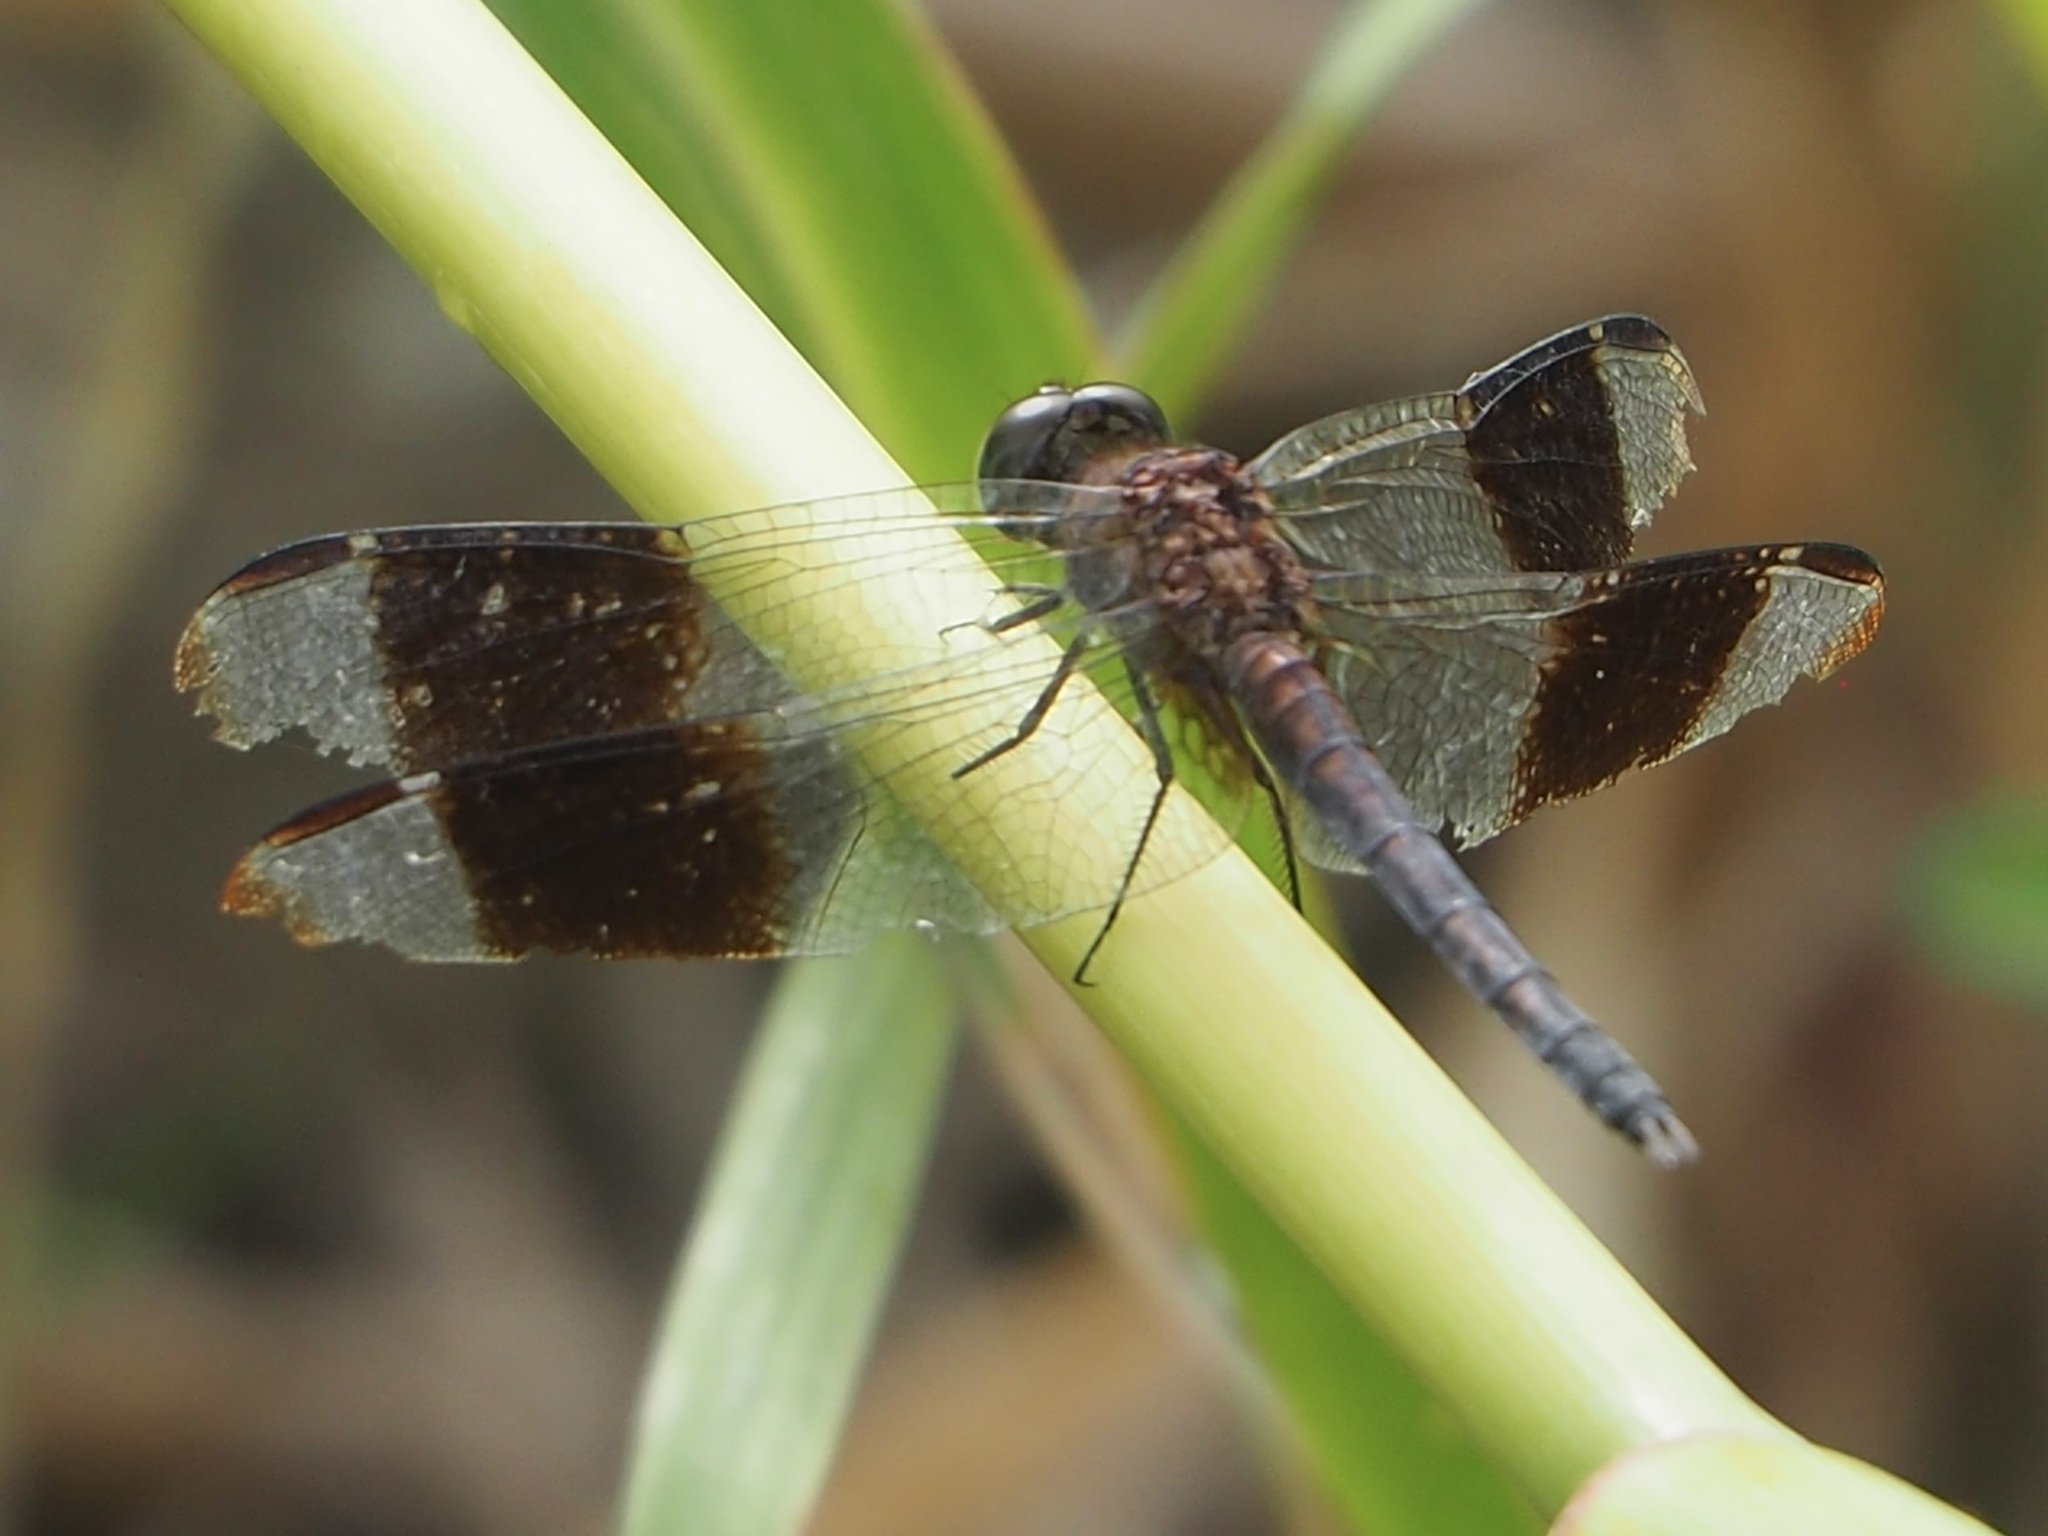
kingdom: Animalia
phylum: Arthropoda
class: Insecta
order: Odonata
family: Libellulidae
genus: Erythrodiplax
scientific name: Erythrodiplax umbrata
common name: Band-winged dragonlet
